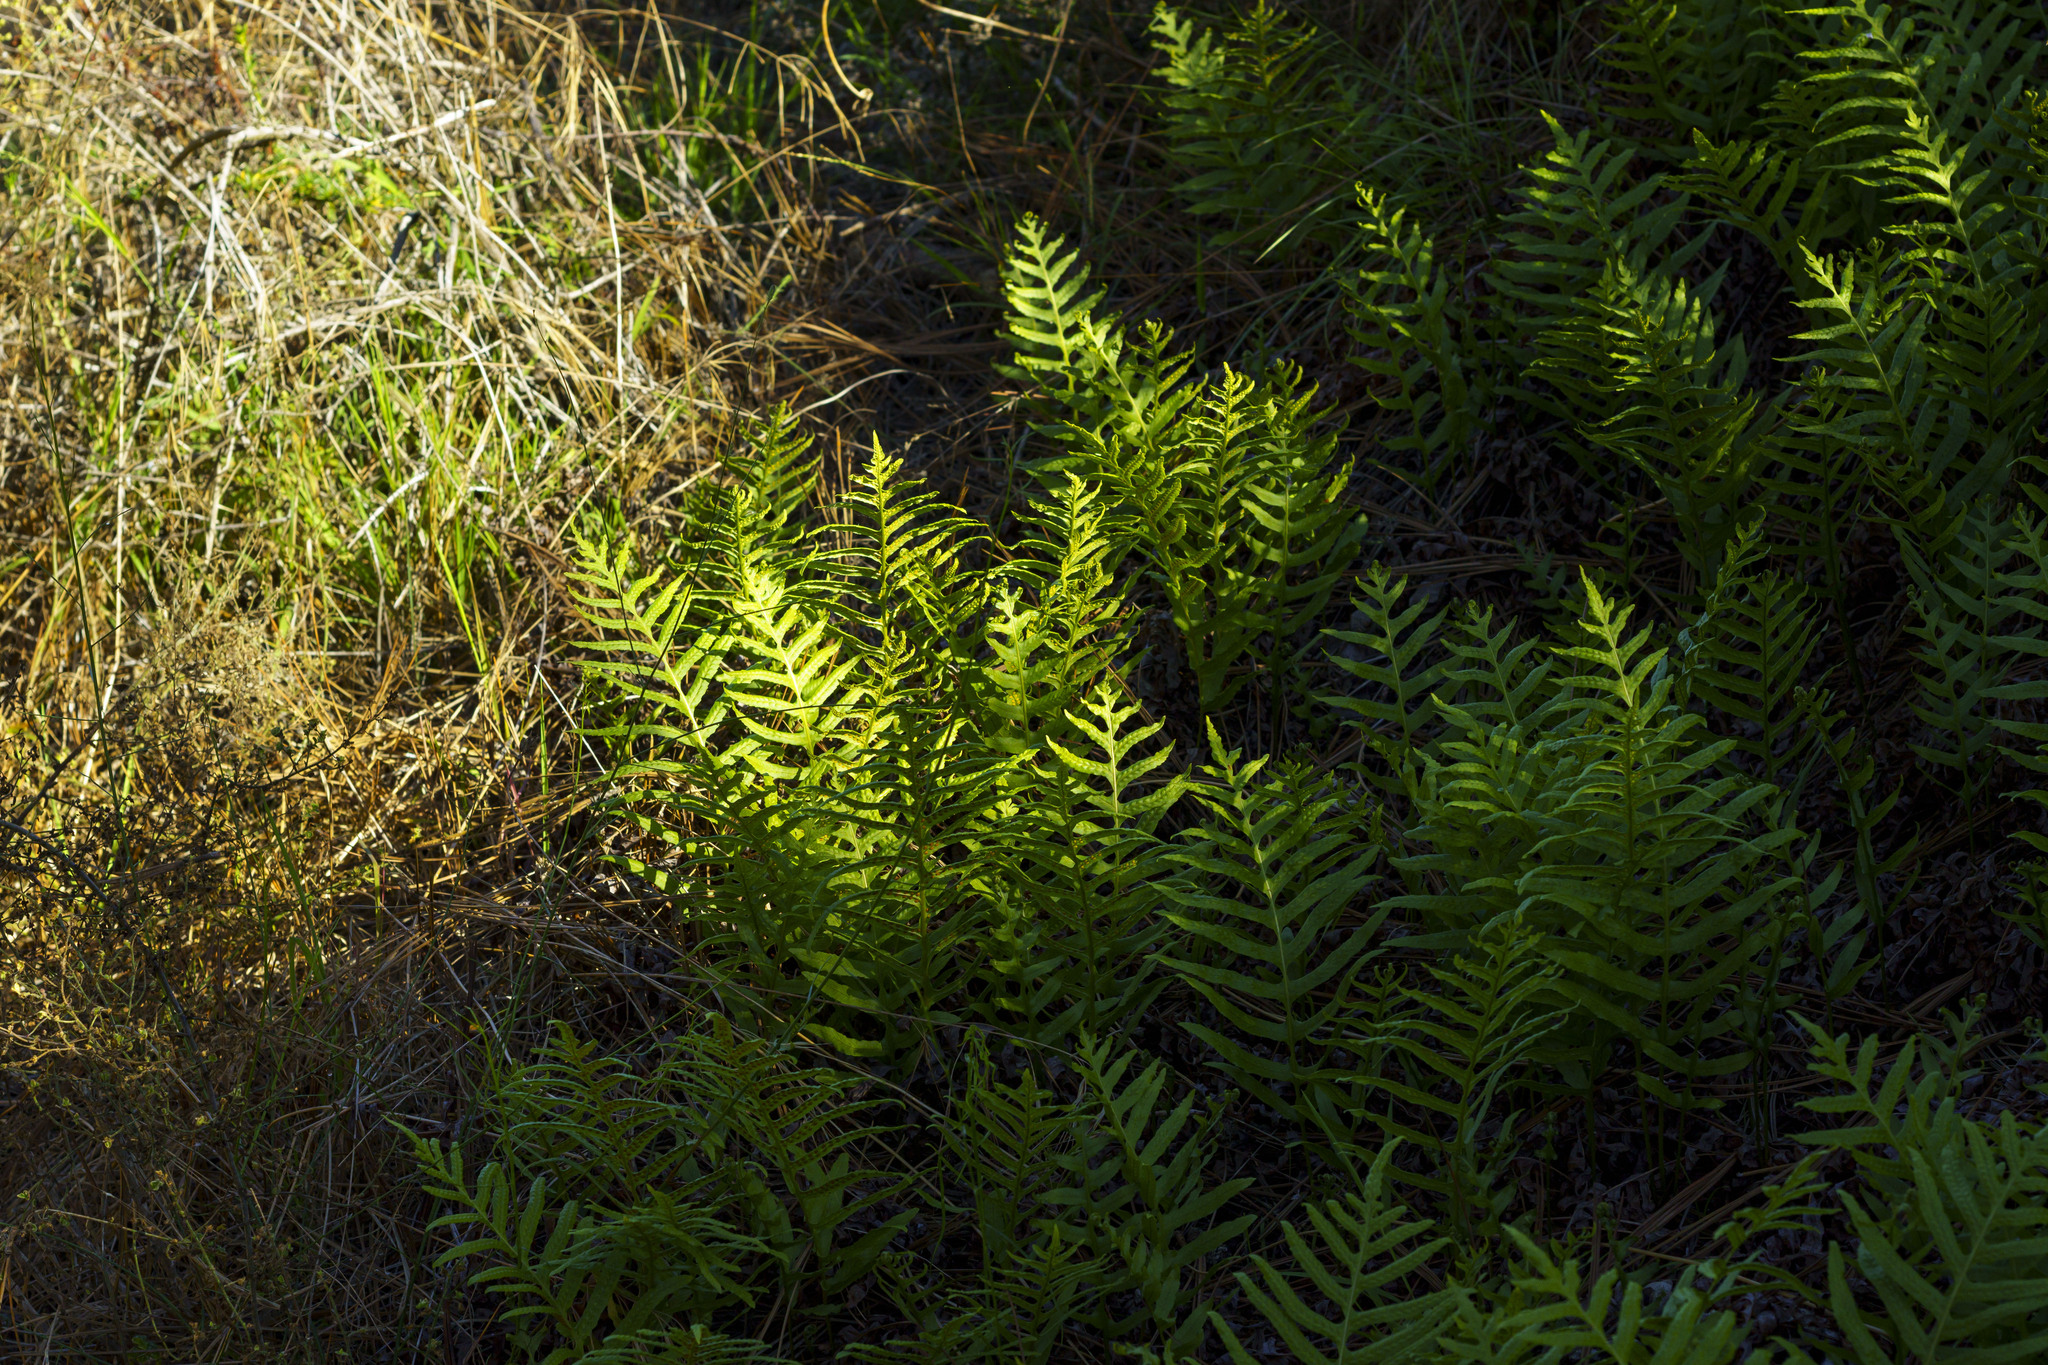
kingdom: Plantae
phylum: Tracheophyta
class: Polypodiopsida
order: Polypodiales
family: Polypodiaceae
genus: Polypodium
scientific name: Polypodium californicum
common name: California polypody
